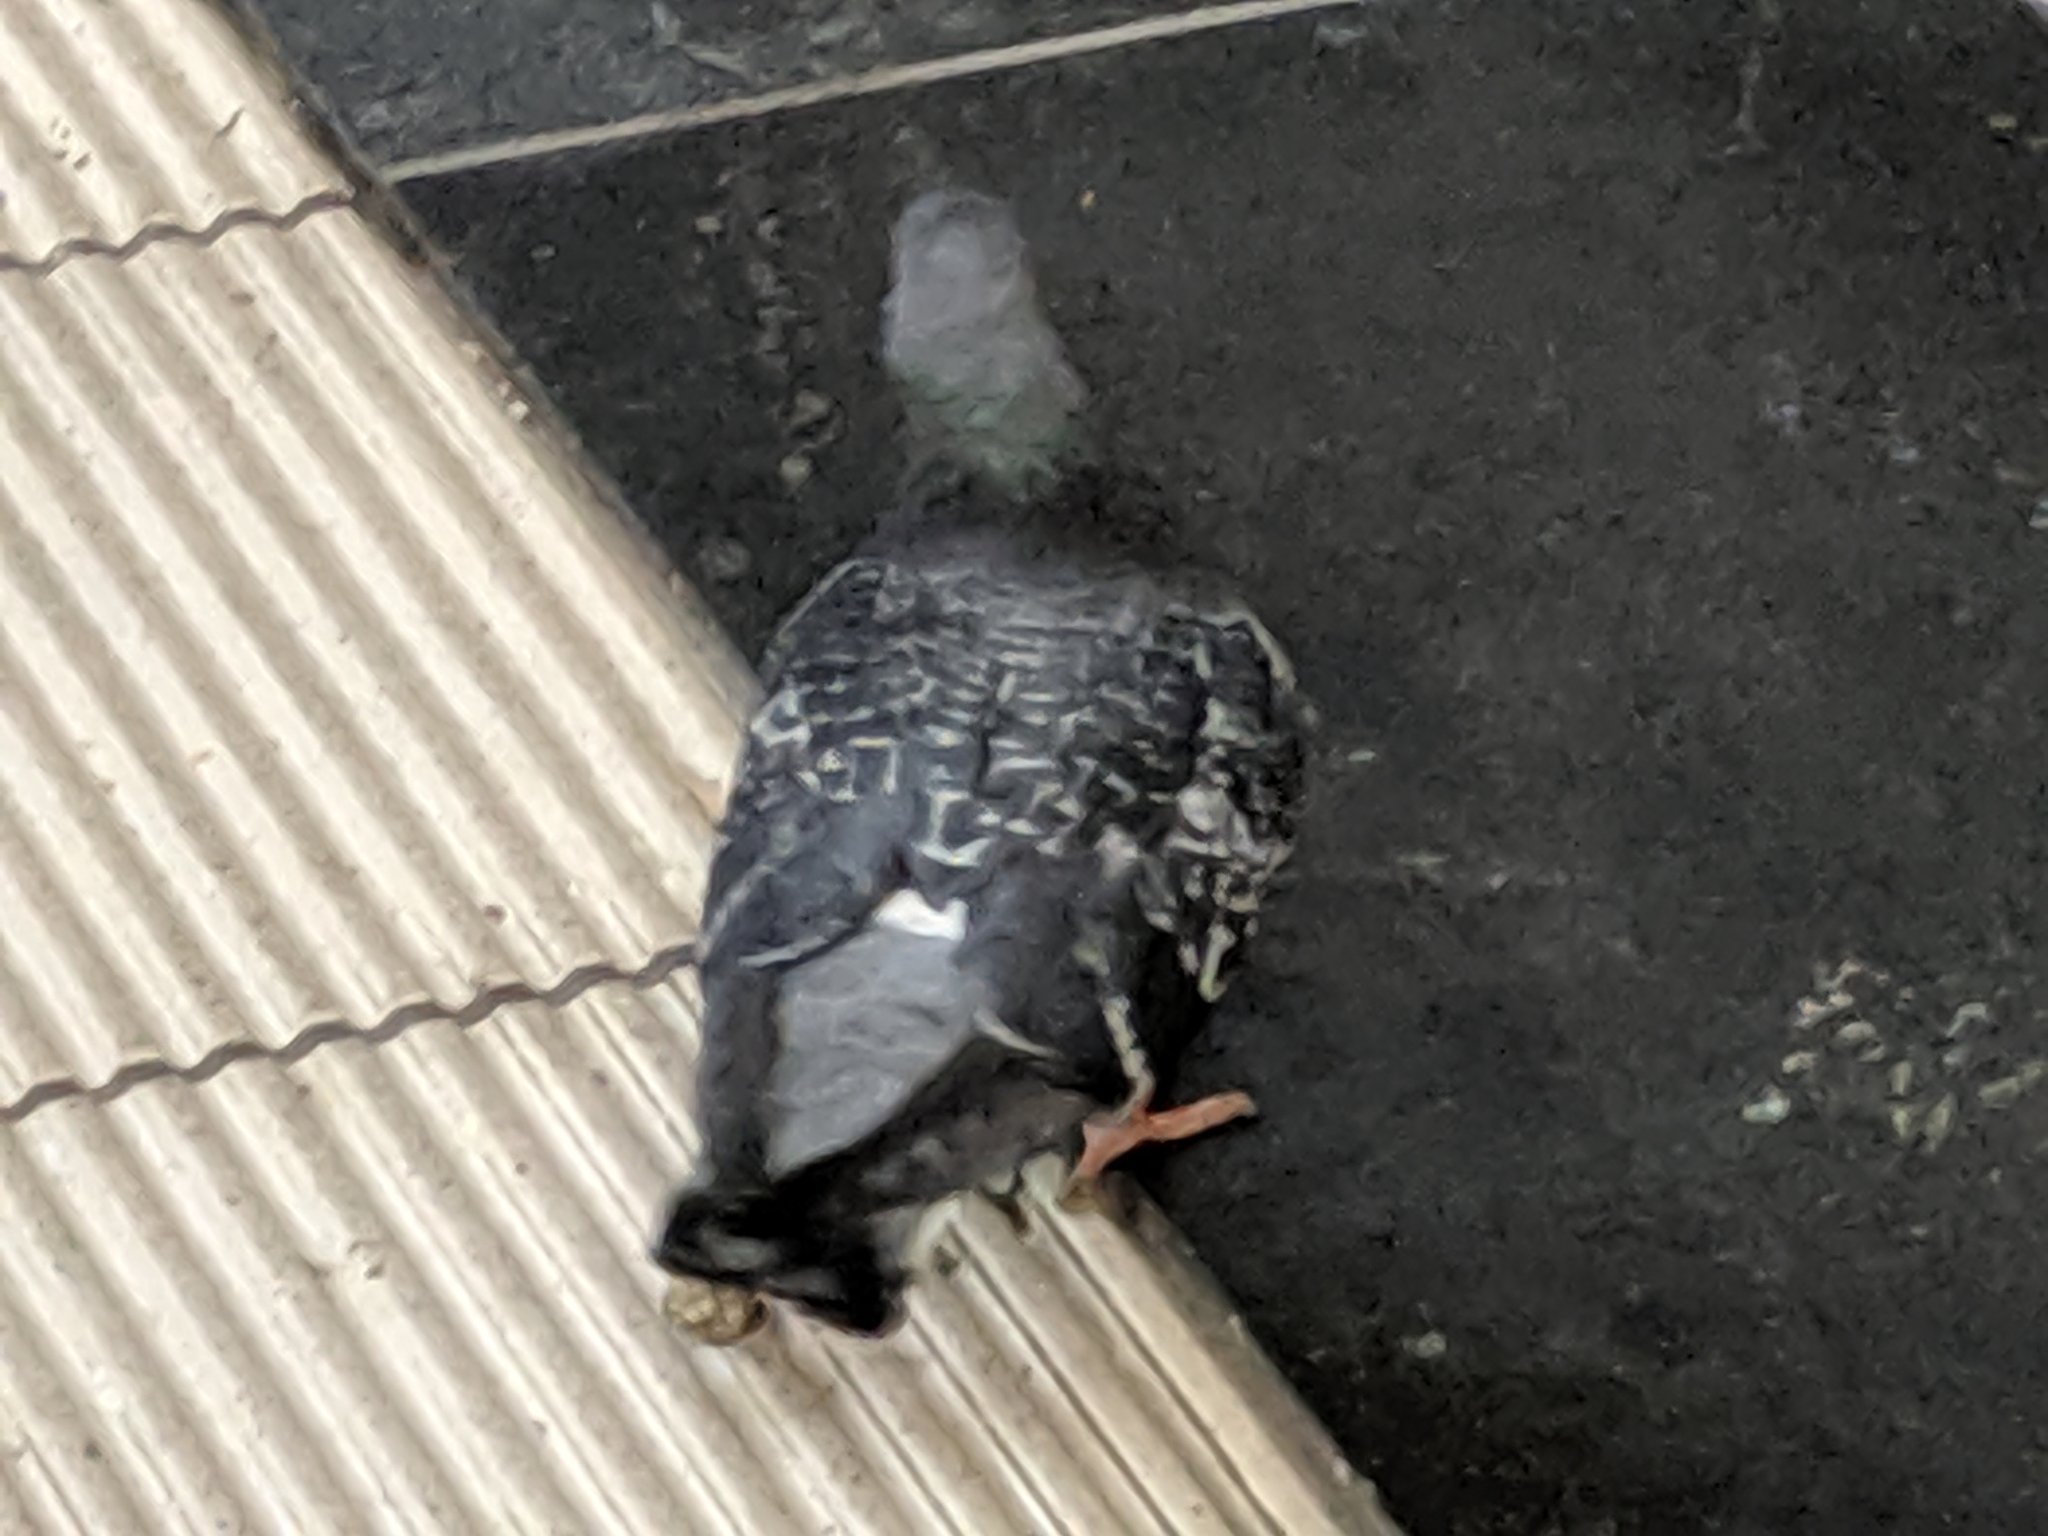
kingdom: Animalia
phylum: Chordata
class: Aves
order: Columbiformes
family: Columbidae
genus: Columba
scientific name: Columba livia
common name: Rock pigeon
